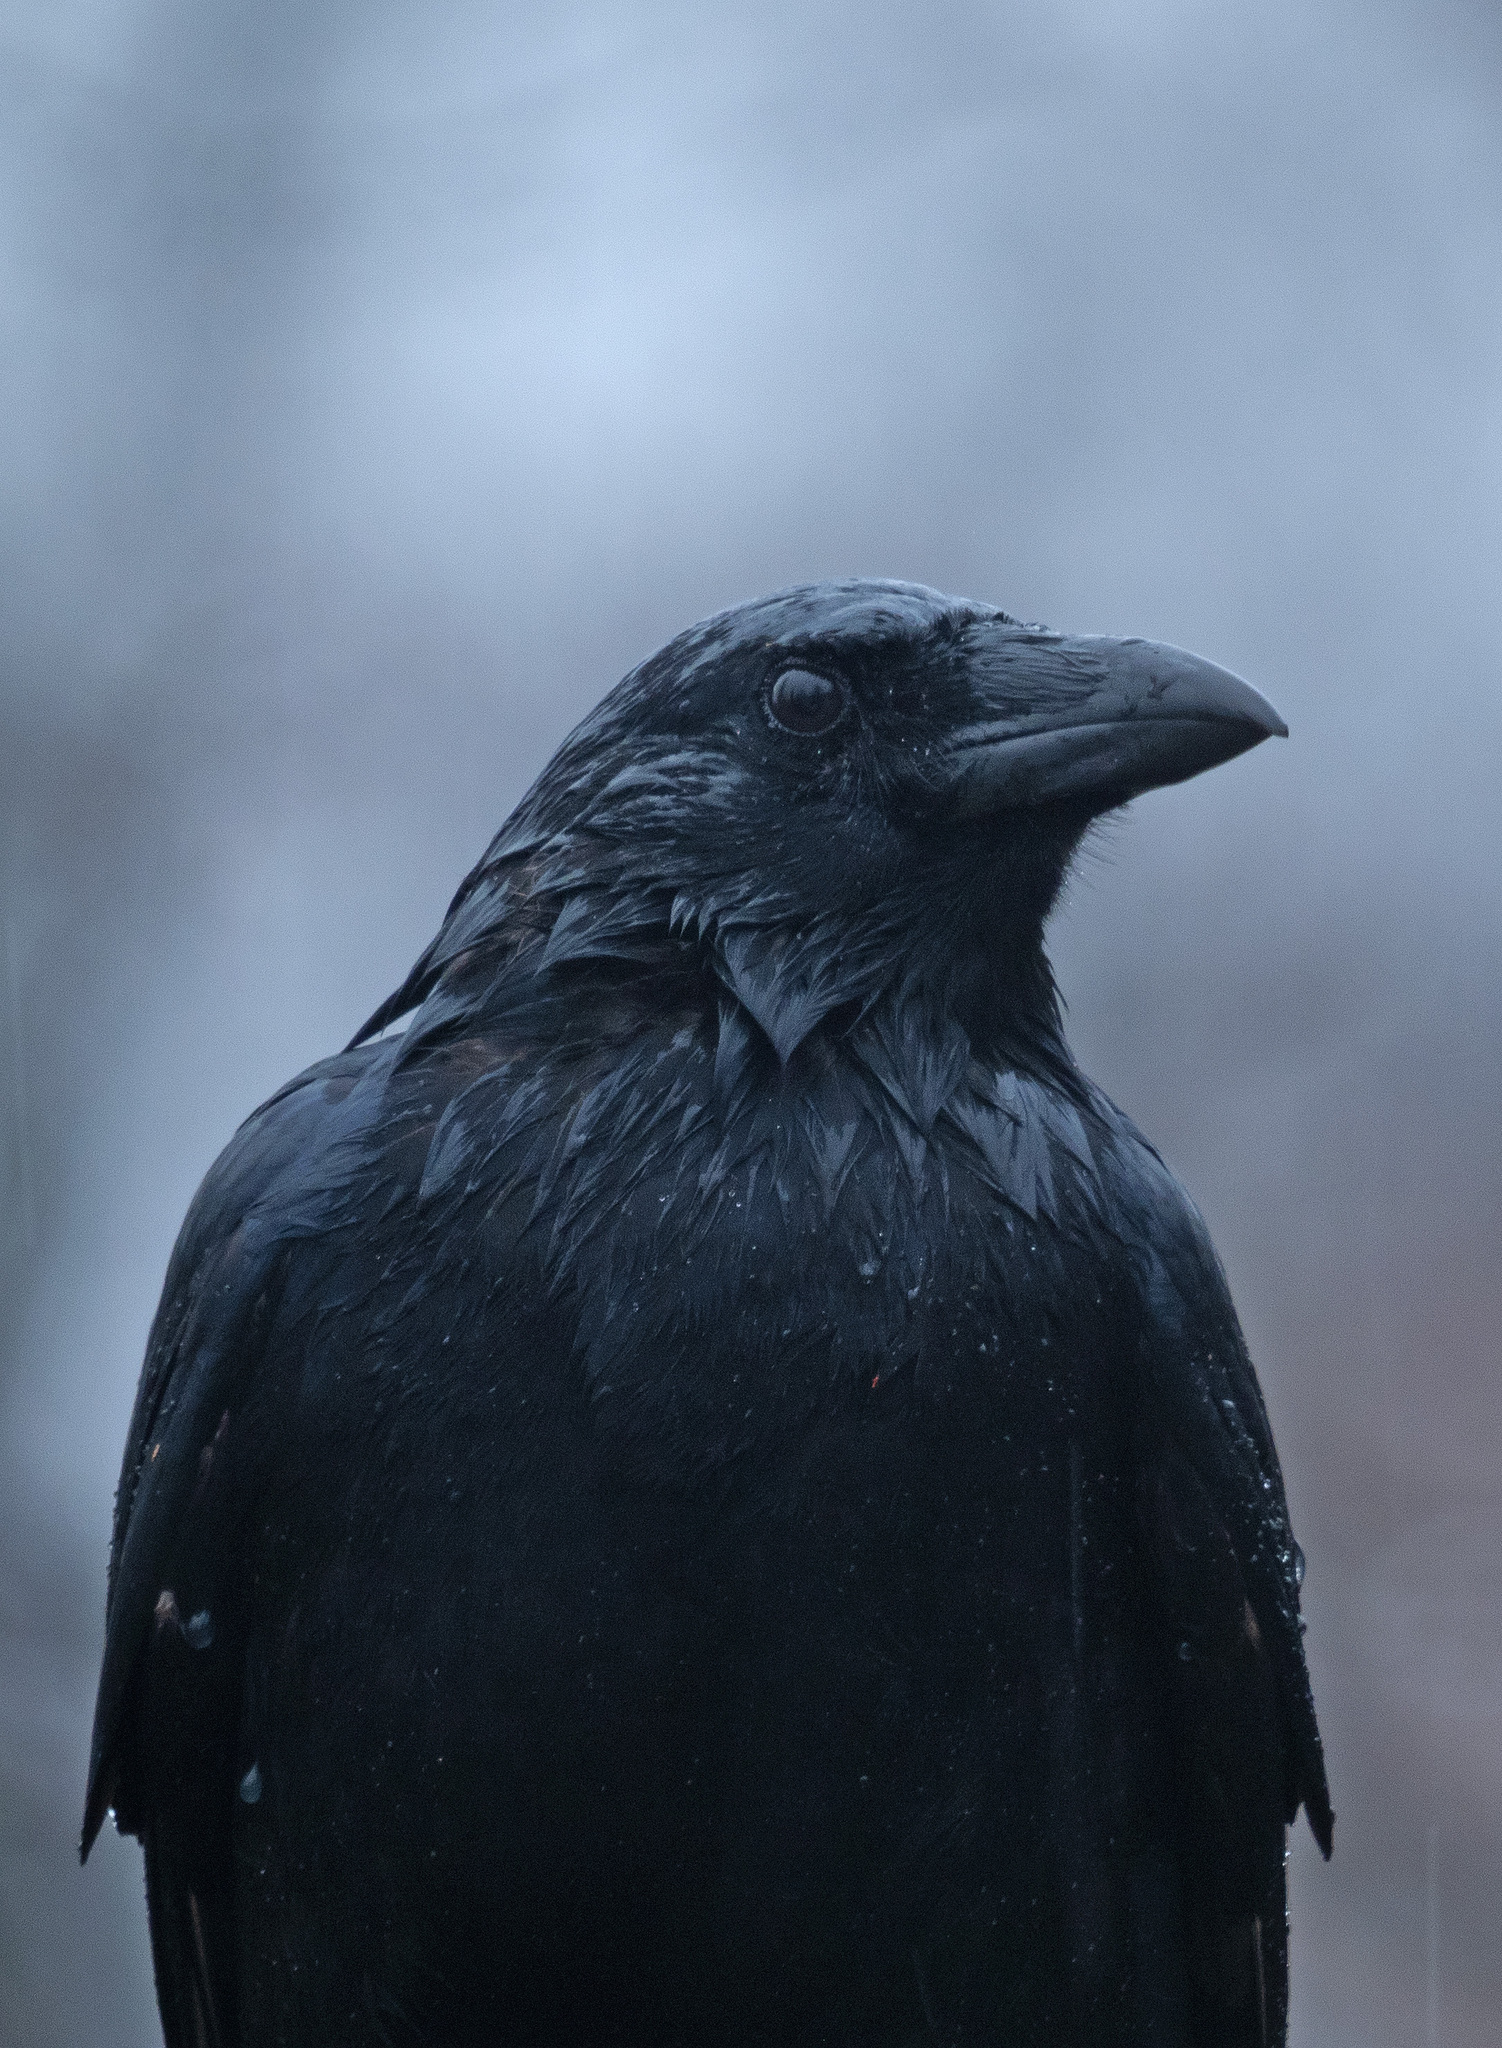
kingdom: Animalia
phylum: Chordata
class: Aves
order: Passeriformes
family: Corvidae
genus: Corvus
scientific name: Corvus ossifragus
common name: Fish crow
